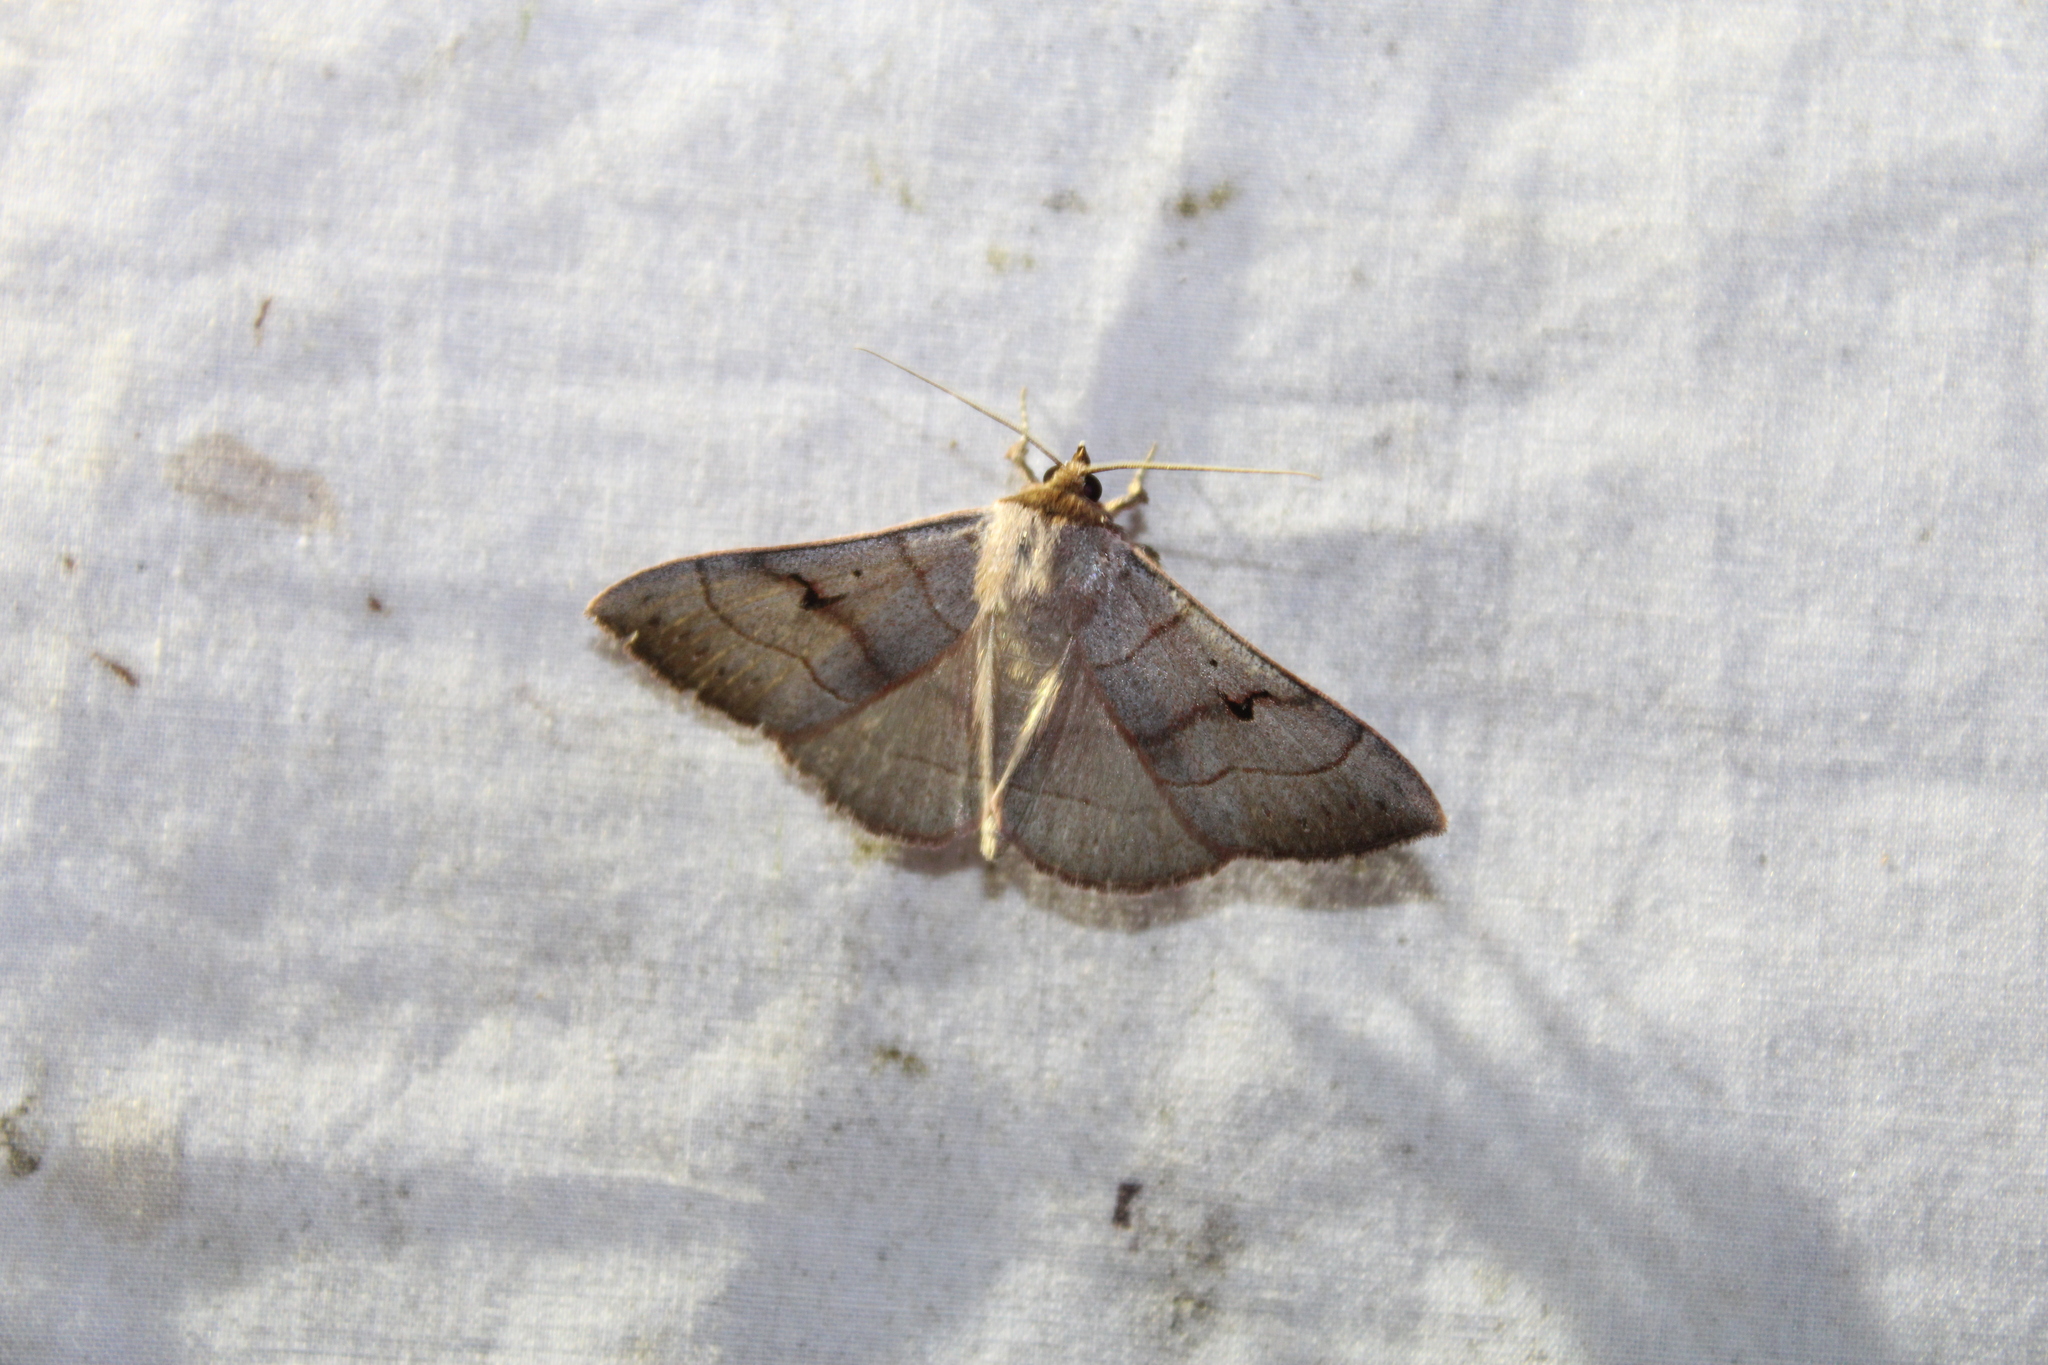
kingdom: Animalia
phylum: Arthropoda
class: Insecta
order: Lepidoptera
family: Erebidae
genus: Panopoda
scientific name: Panopoda carneicosta
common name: Brown panopoda moth
